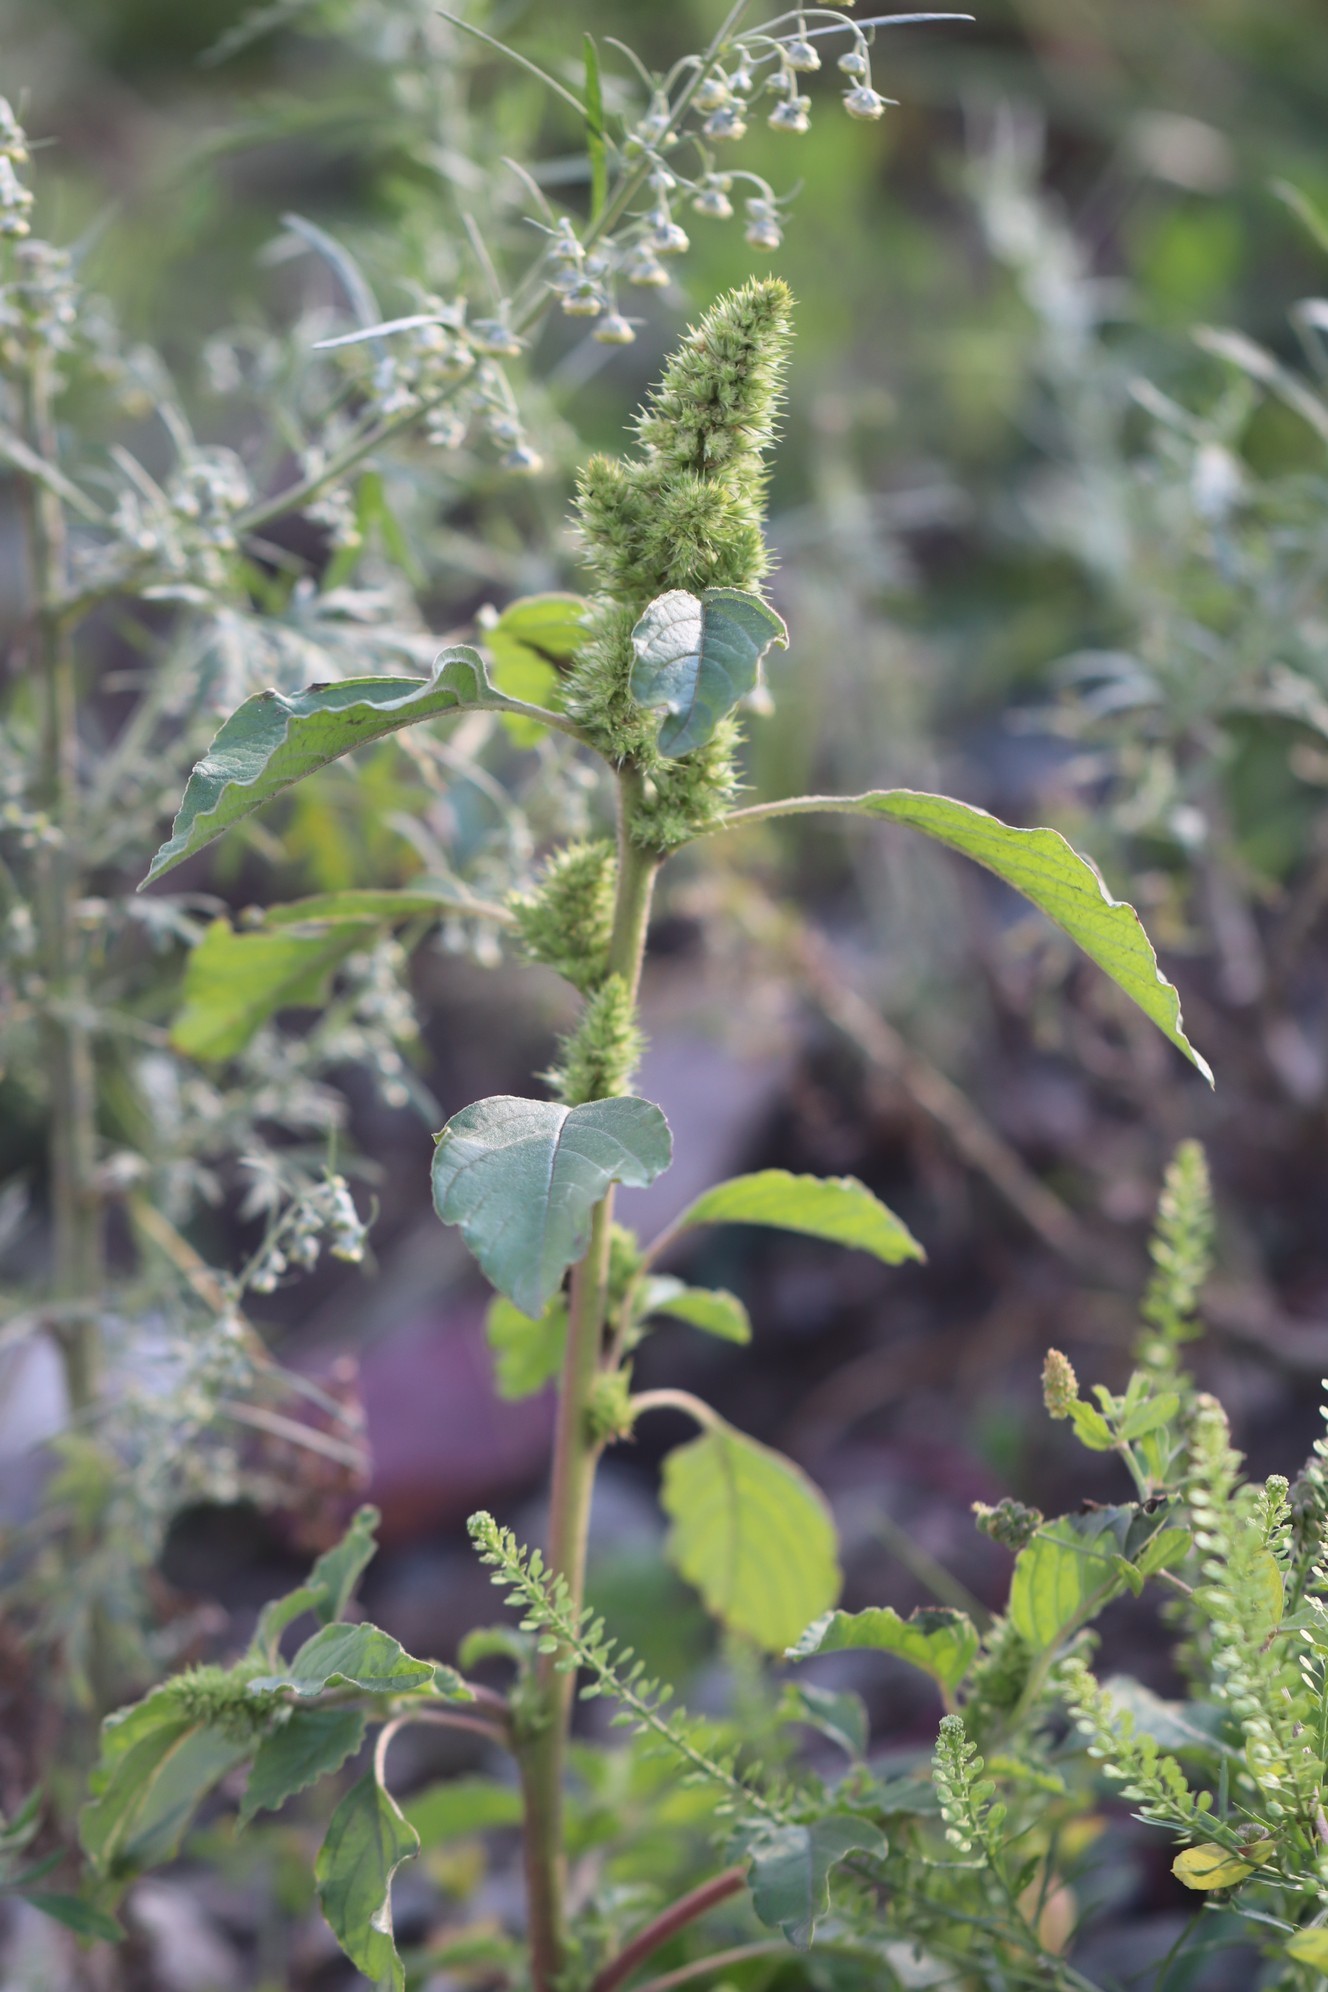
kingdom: Plantae
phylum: Tracheophyta
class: Magnoliopsida
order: Caryophyllales
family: Amaranthaceae
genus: Amaranthus
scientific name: Amaranthus retroflexus
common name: Redroot amaranth
